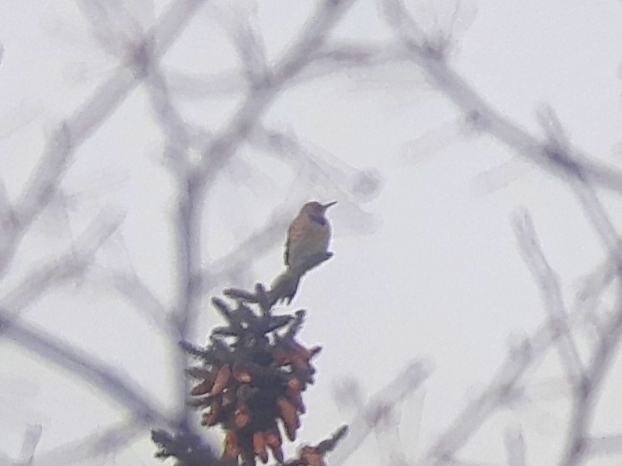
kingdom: Animalia
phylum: Chordata
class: Aves
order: Piciformes
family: Picidae
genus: Colaptes
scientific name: Colaptes auratus
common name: Northern flicker
